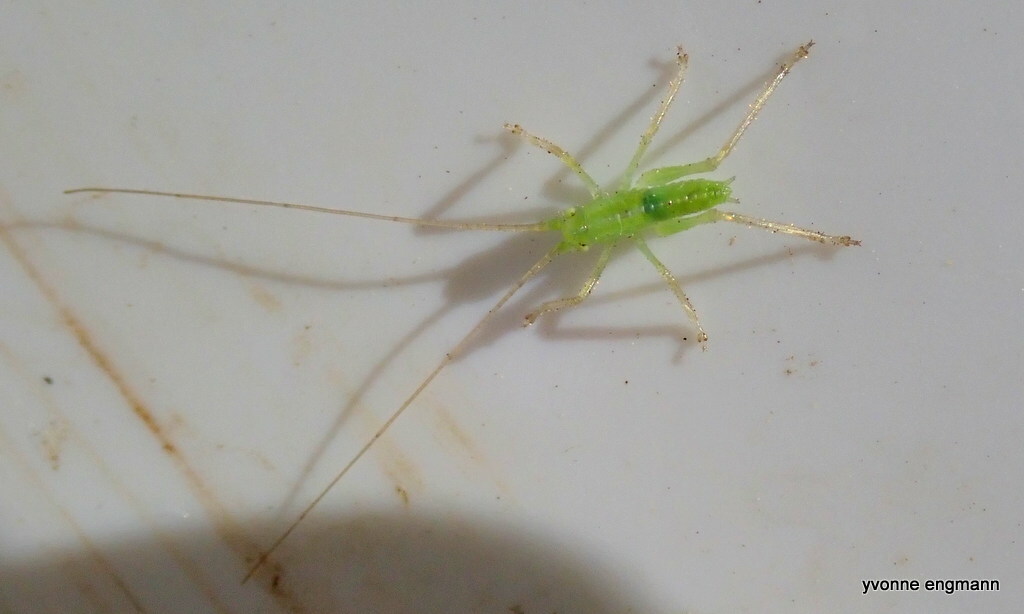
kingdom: Animalia
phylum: Arthropoda
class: Insecta
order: Orthoptera
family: Tettigoniidae
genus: Meconema
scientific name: Meconema thalassinum
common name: Oak bush-cricket
